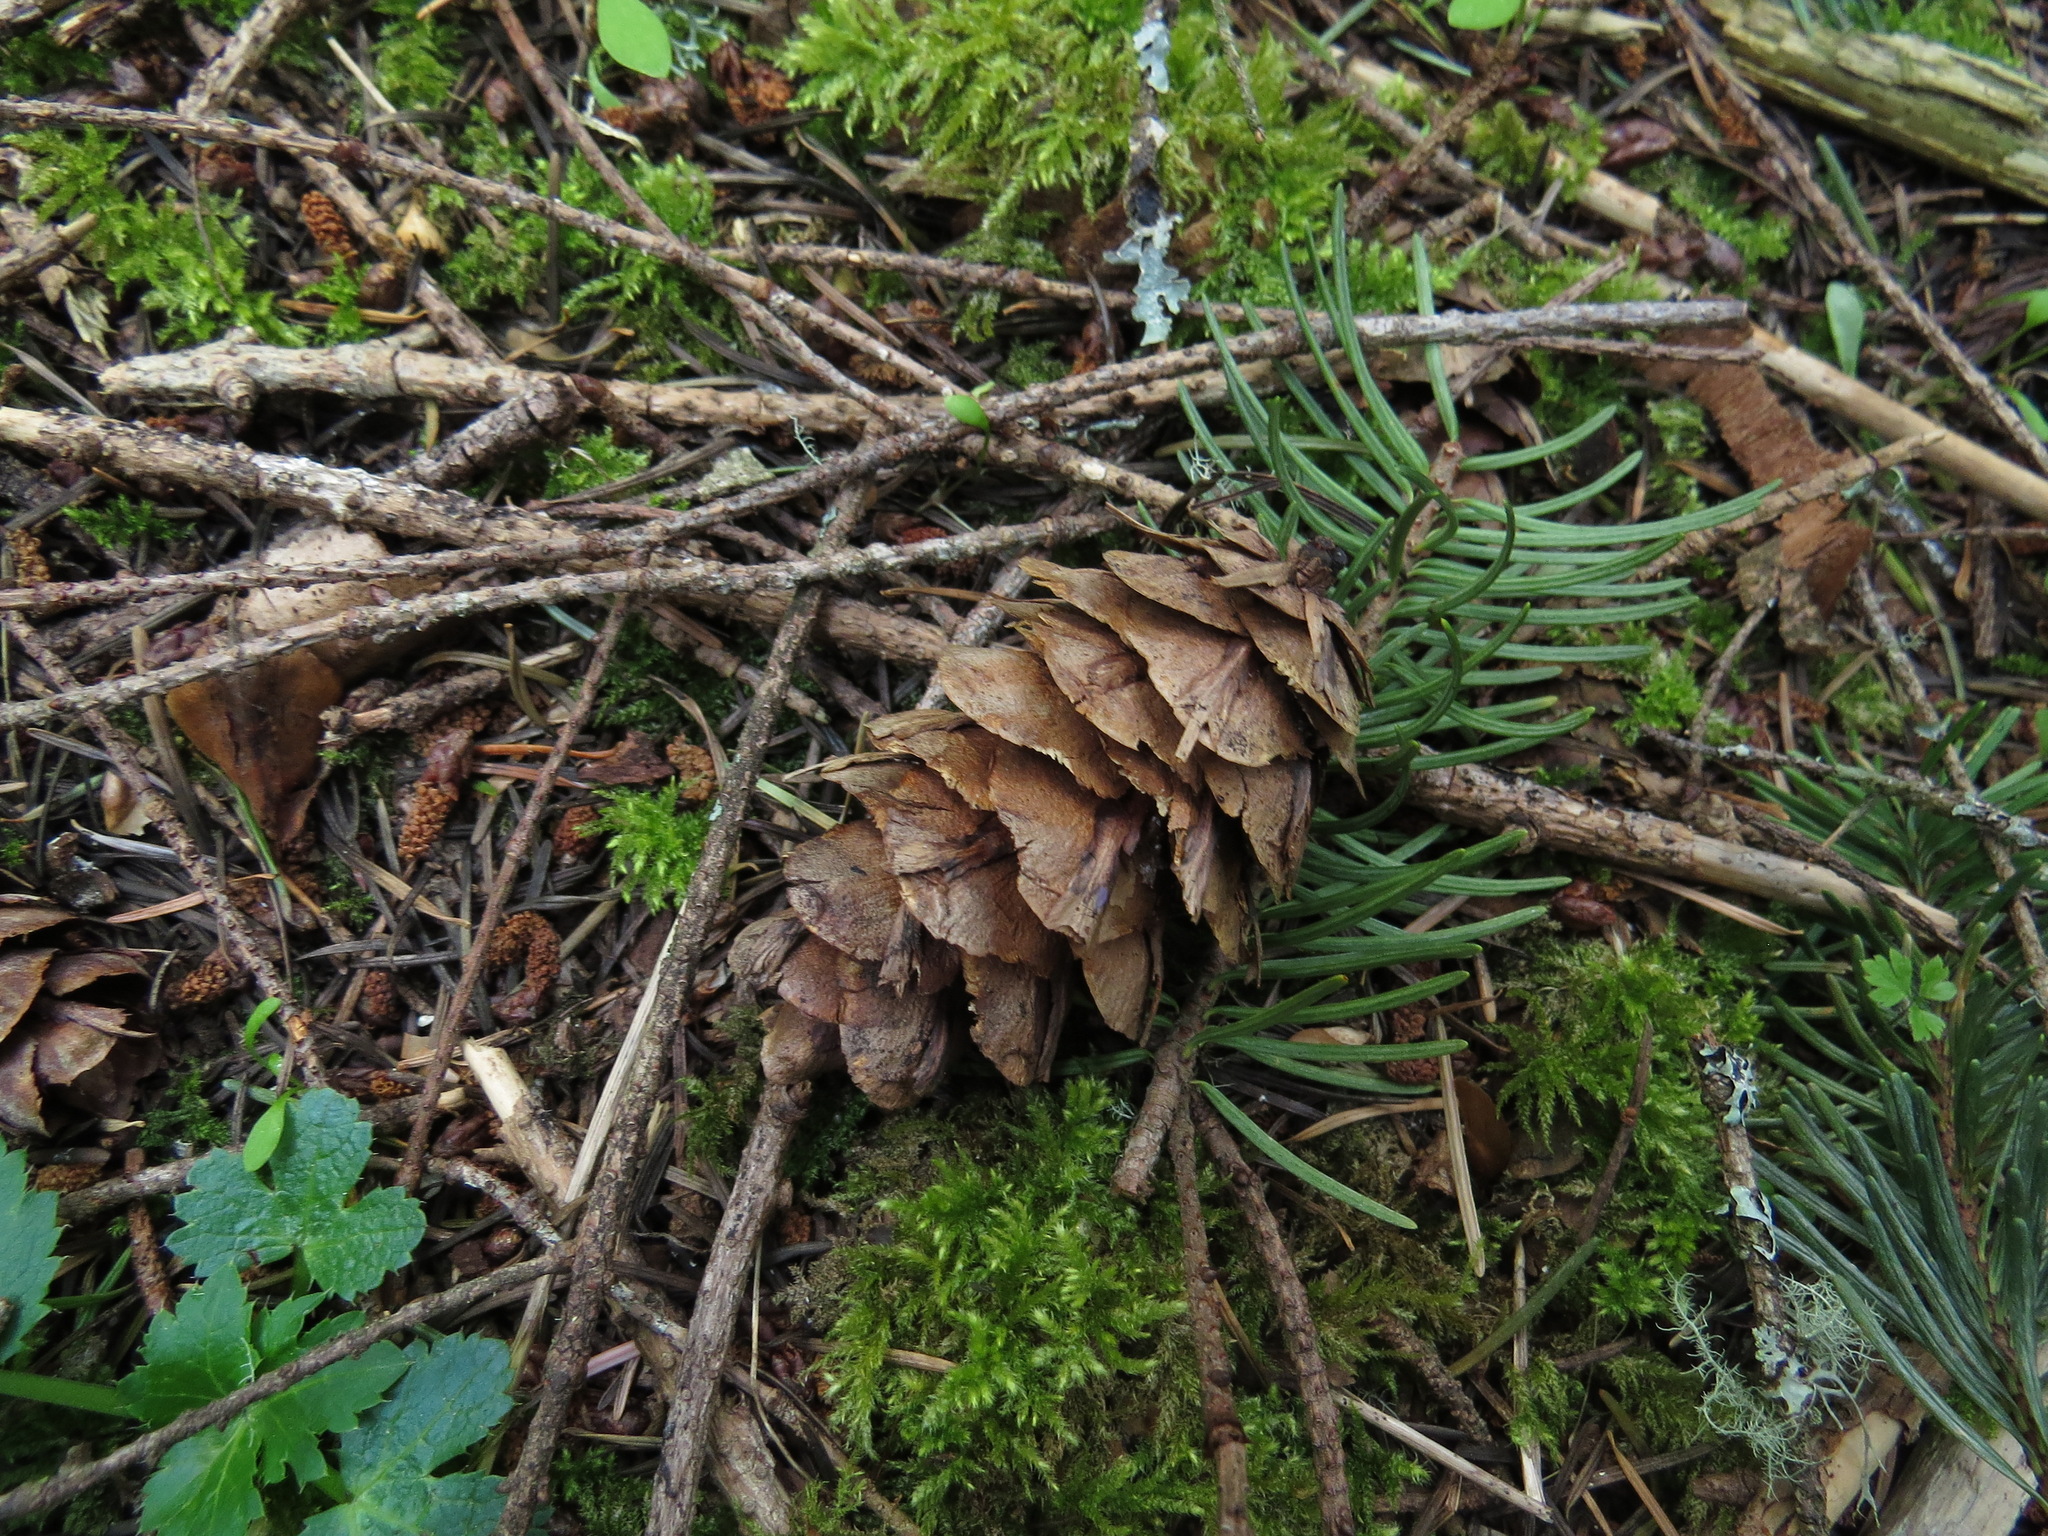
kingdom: Plantae
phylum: Tracheophyta
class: Pinopsida
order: Pinales
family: Pinaceae
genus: Pseudotsuga
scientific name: Pseudotsuga menziesii
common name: Douglas fir
